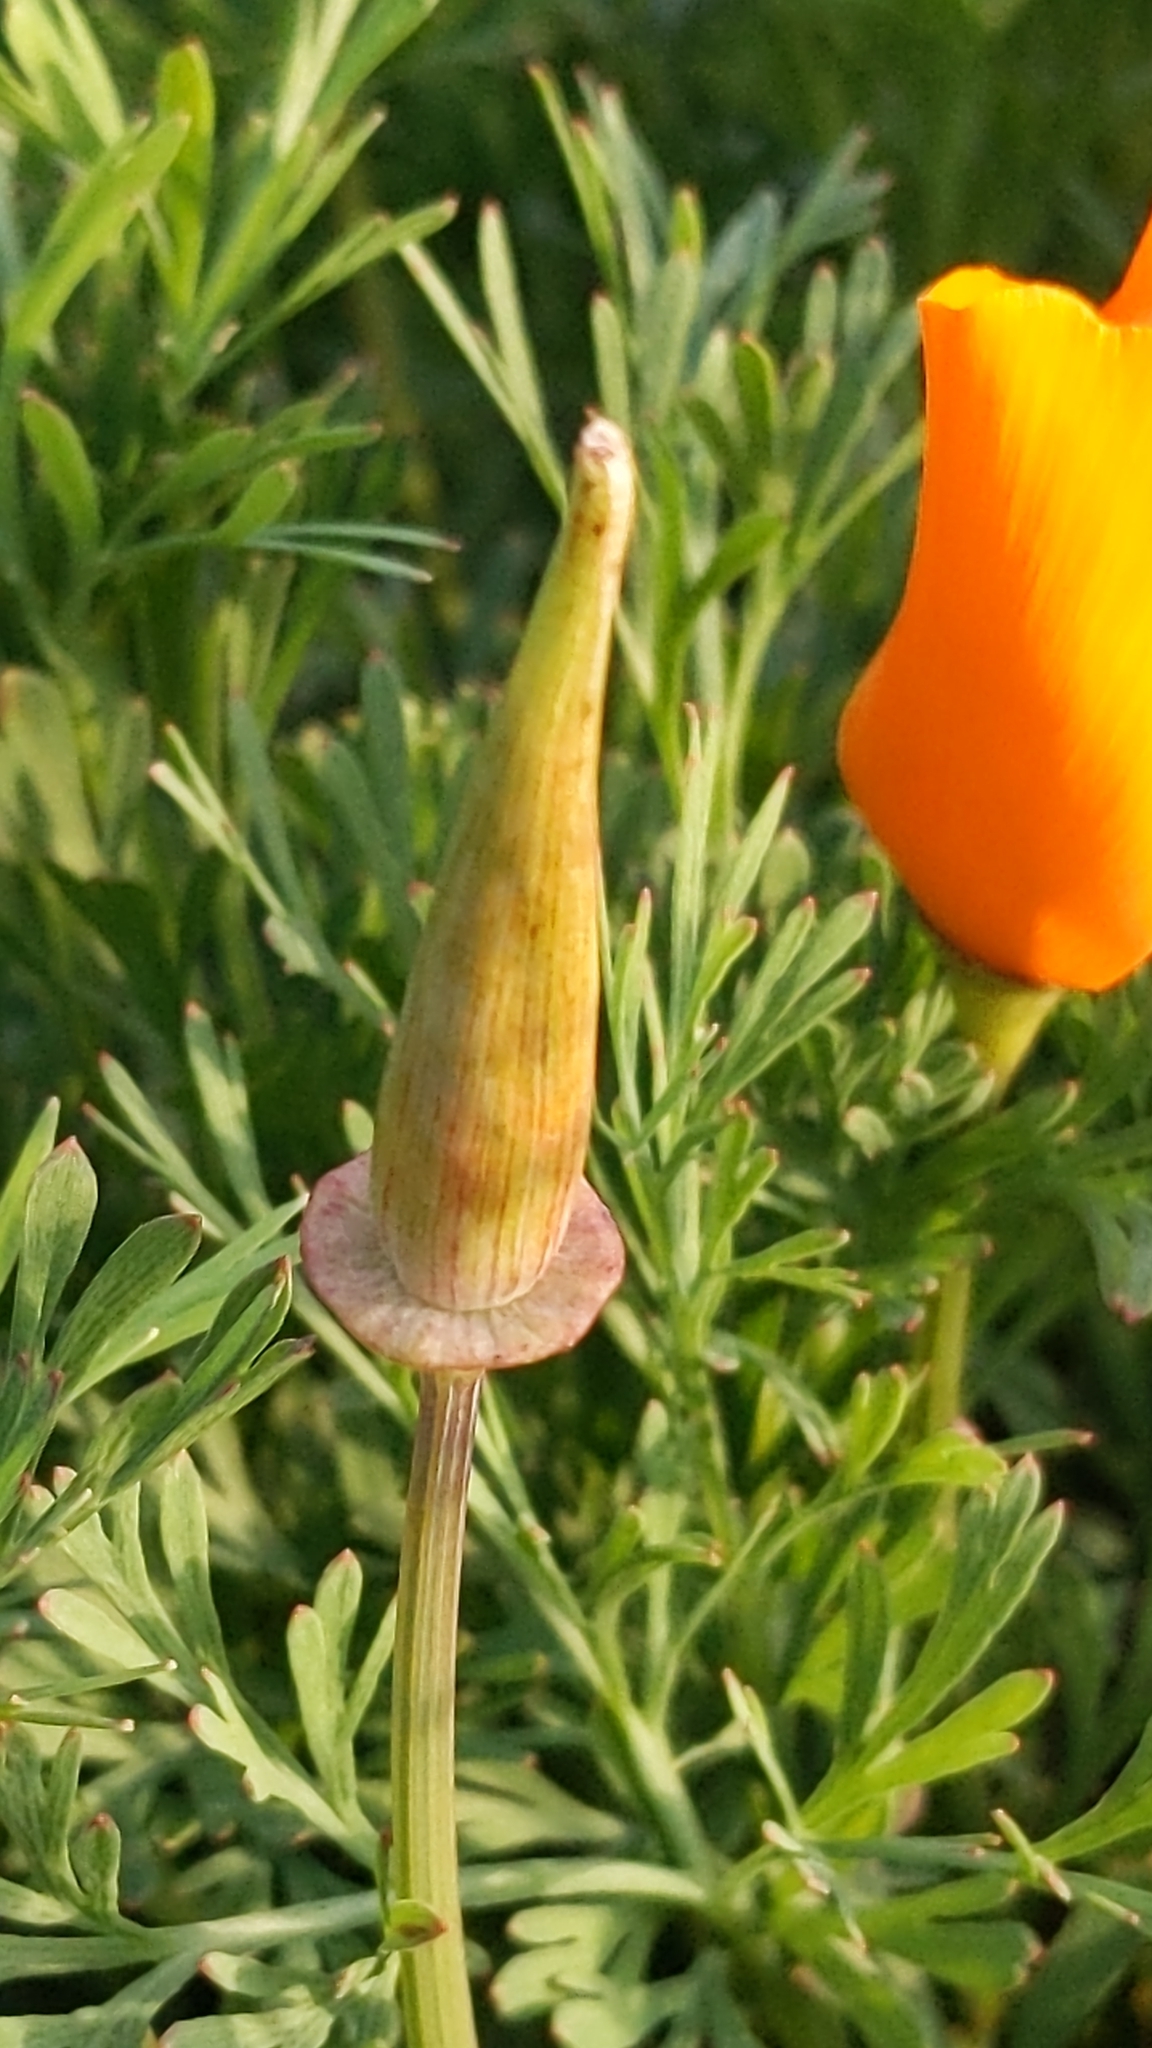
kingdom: Plantae
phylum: Tracheophyta
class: Magnoliopsida
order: Ranunculales
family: Papaveraceae
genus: Eschscholzia
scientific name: Eschscholzia californica
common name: California poppy
